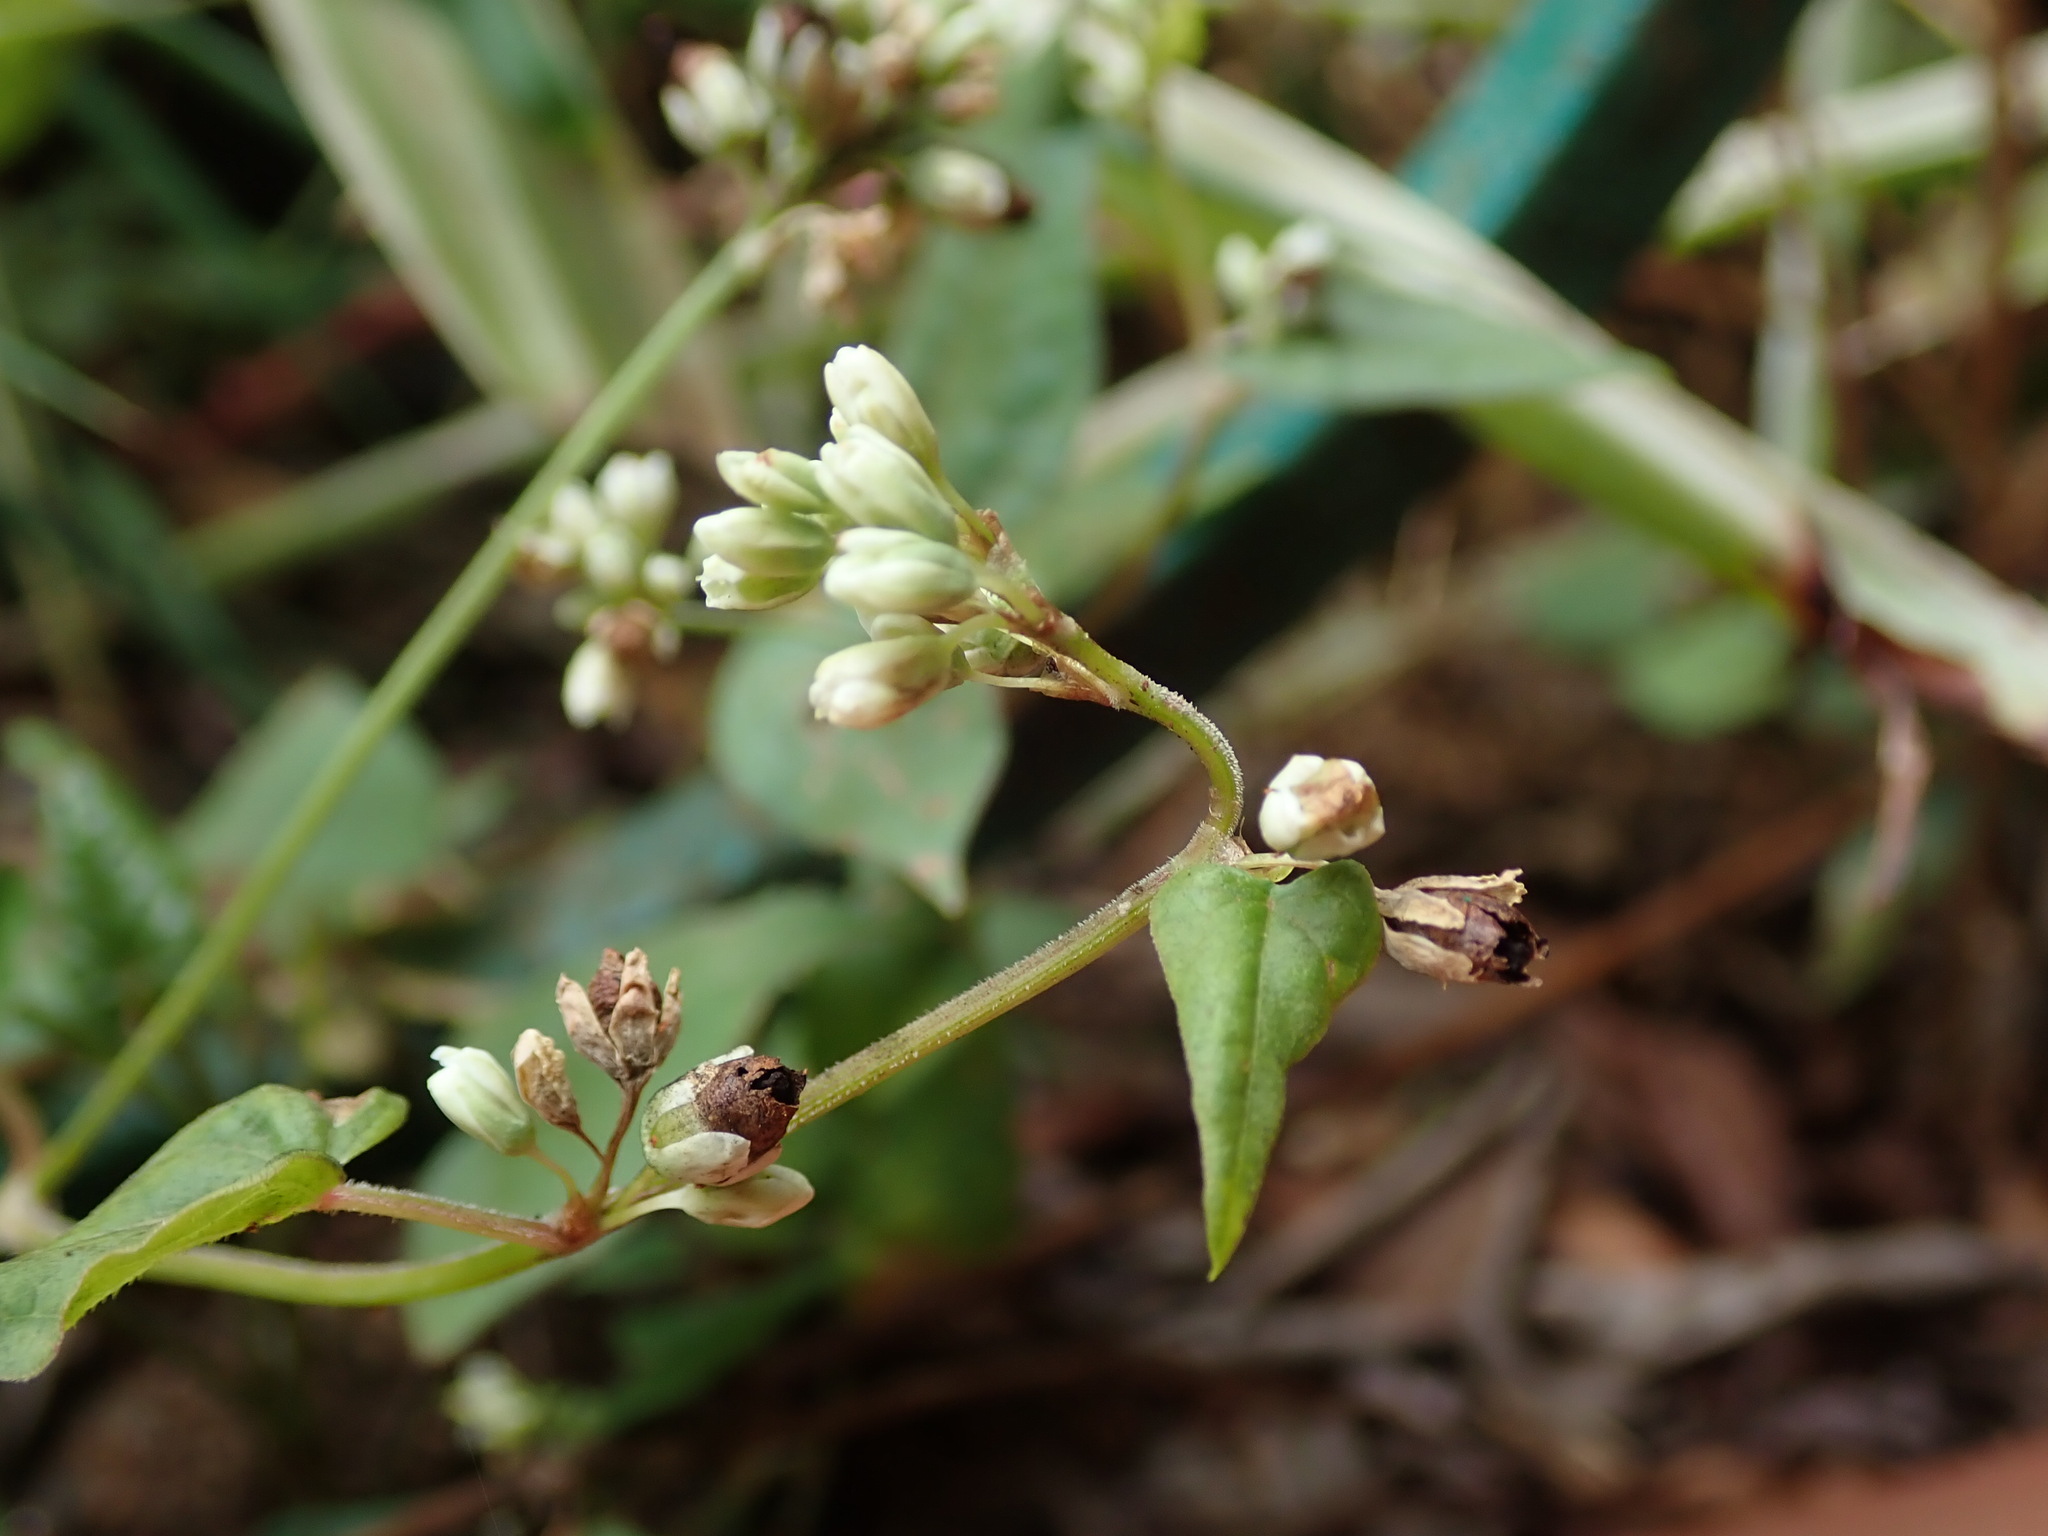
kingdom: Plantae
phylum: Tracheophyta
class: Magnoliopsida
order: Caryophyllales
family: Polygonaceae
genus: Fagopyrum
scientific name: Fagopyrum esculentum
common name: Buckwheat
